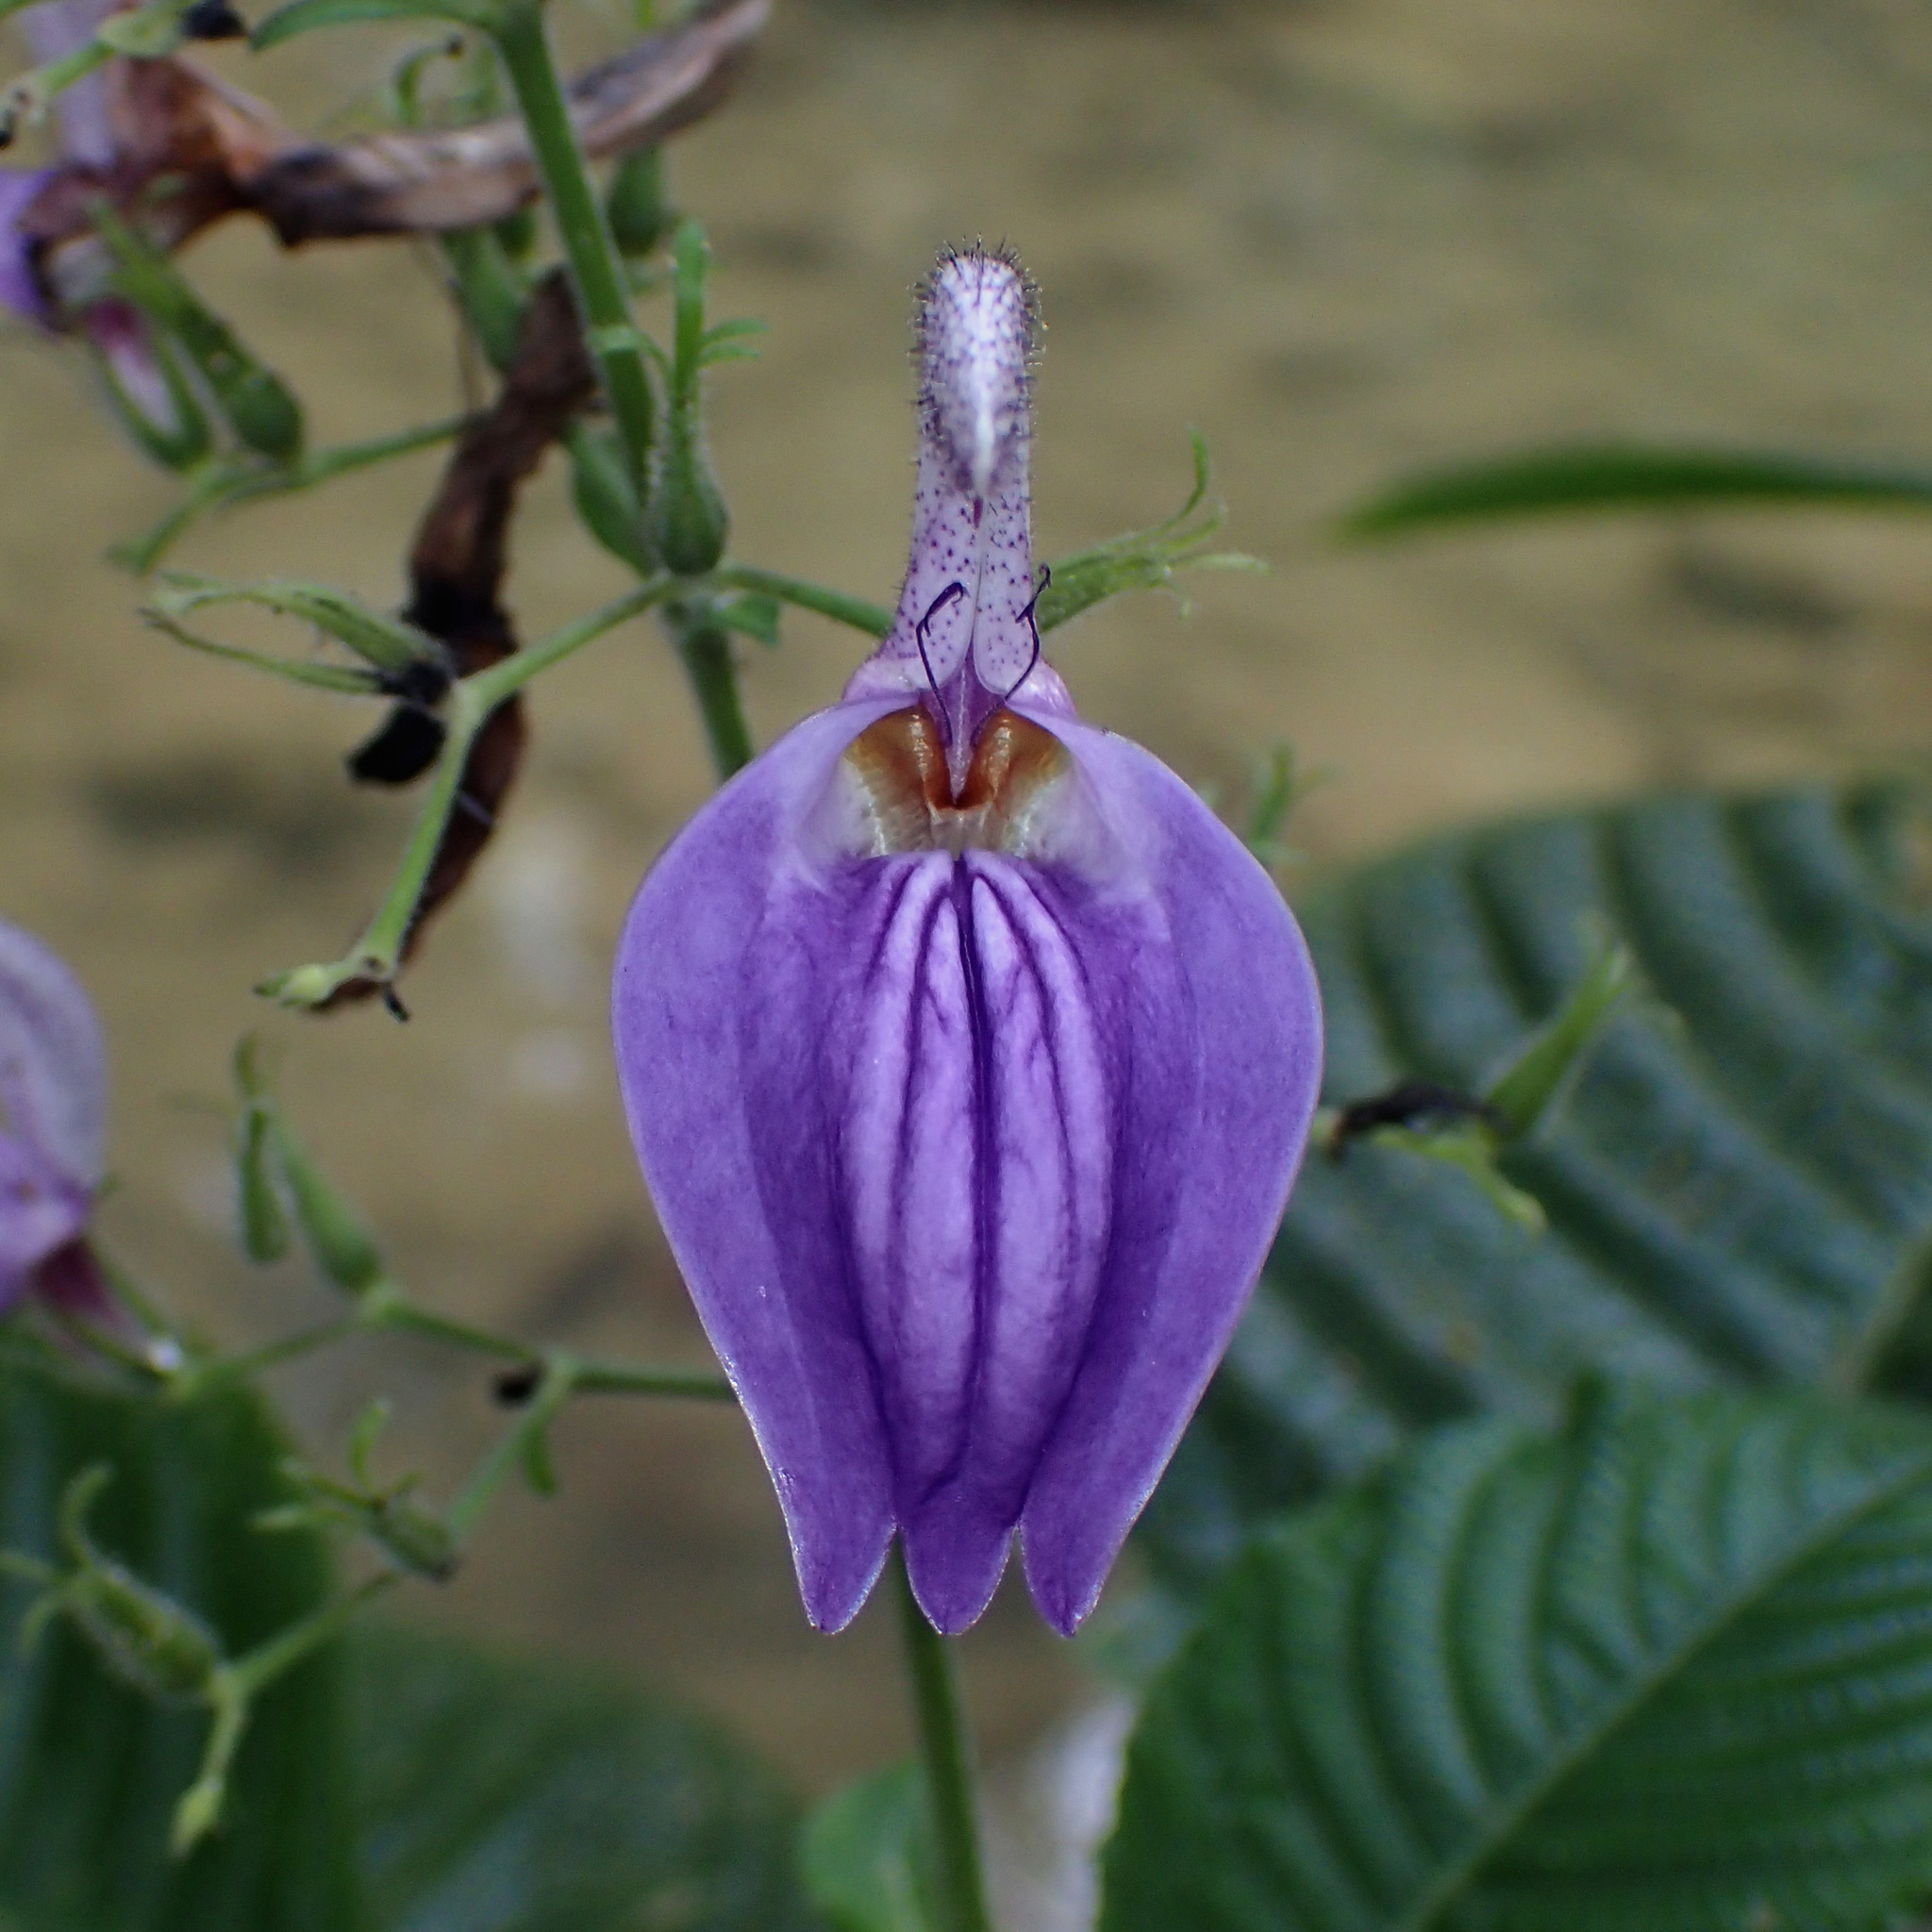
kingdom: Plantae
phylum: Tracheophyta
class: Magnoliopsida
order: Lamiales
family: Acanthaceae
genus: Brillantaisia
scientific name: Brillantaisia owariensis
